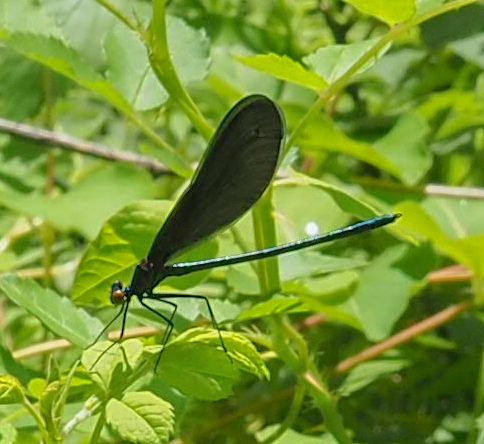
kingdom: Animalia
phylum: Arthropoda
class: Insecta
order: Odonata
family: Calopterygidae
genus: Calopteryx
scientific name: Calopteryx maculata
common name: Ebony jewelwing
